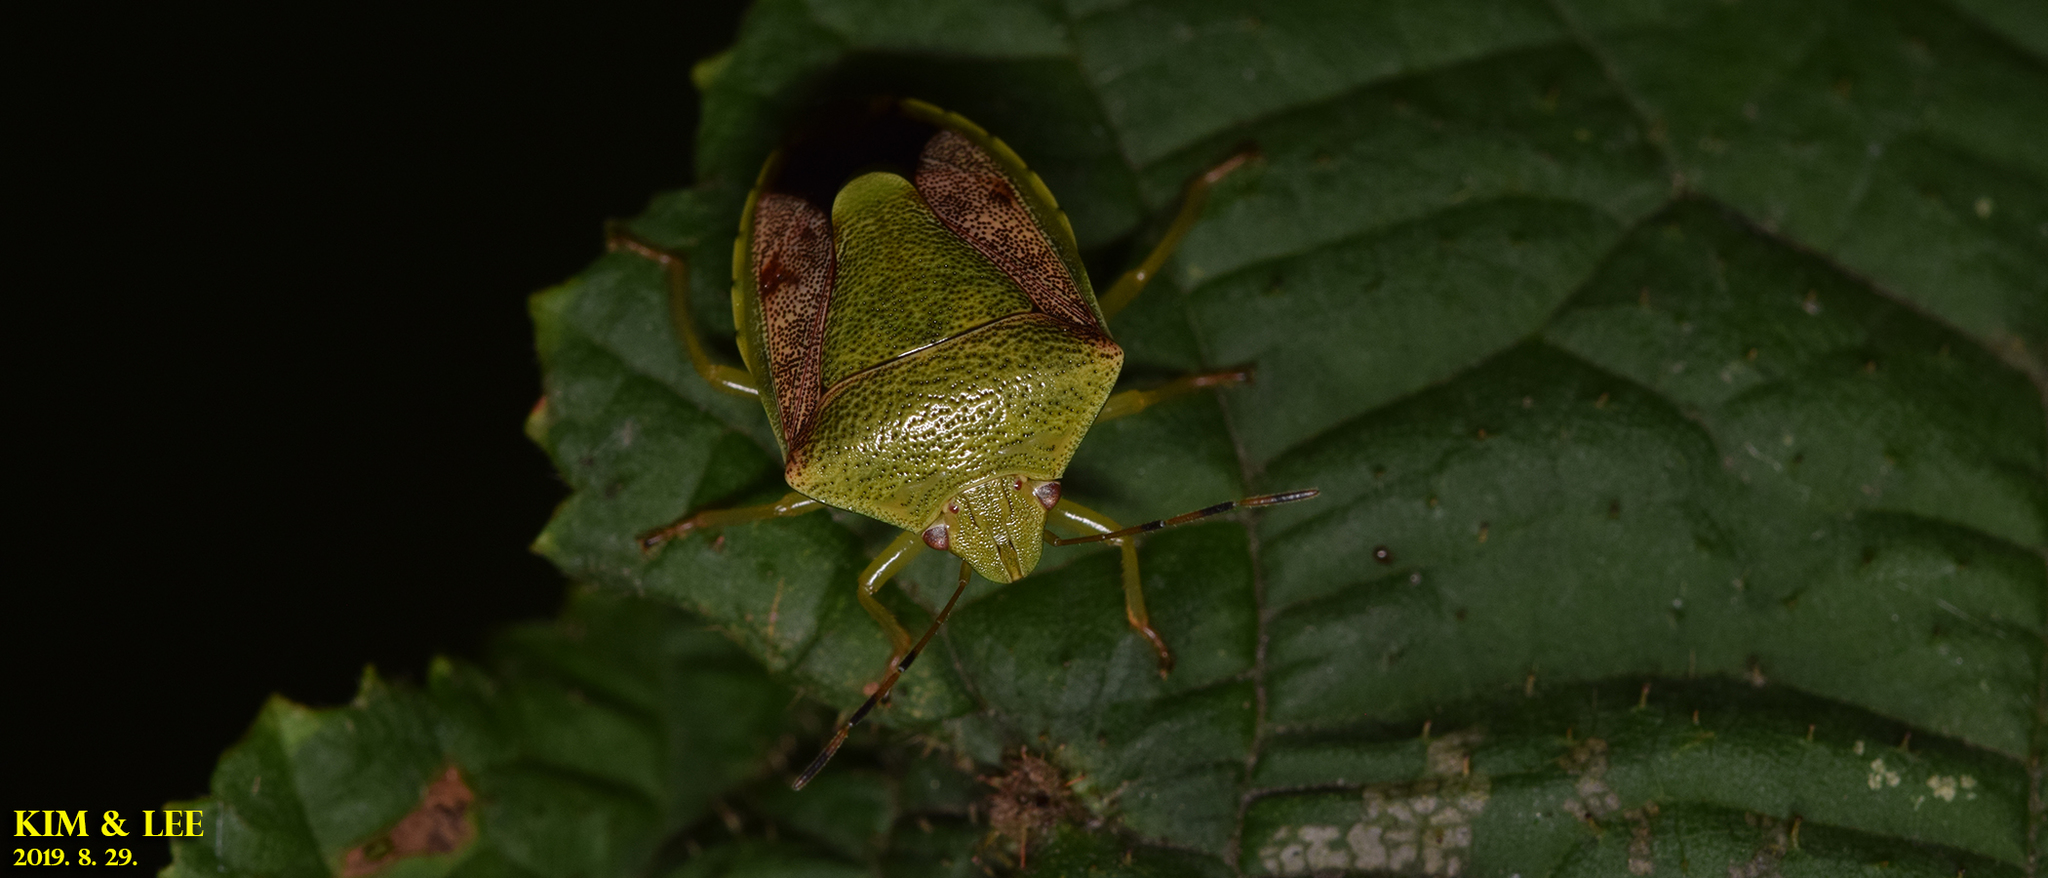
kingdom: Animalia
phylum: Arthropoda
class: Insecta
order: Hemiptera
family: Pentatomidae
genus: Plautia
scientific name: Plautia stali
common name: Stink bug
